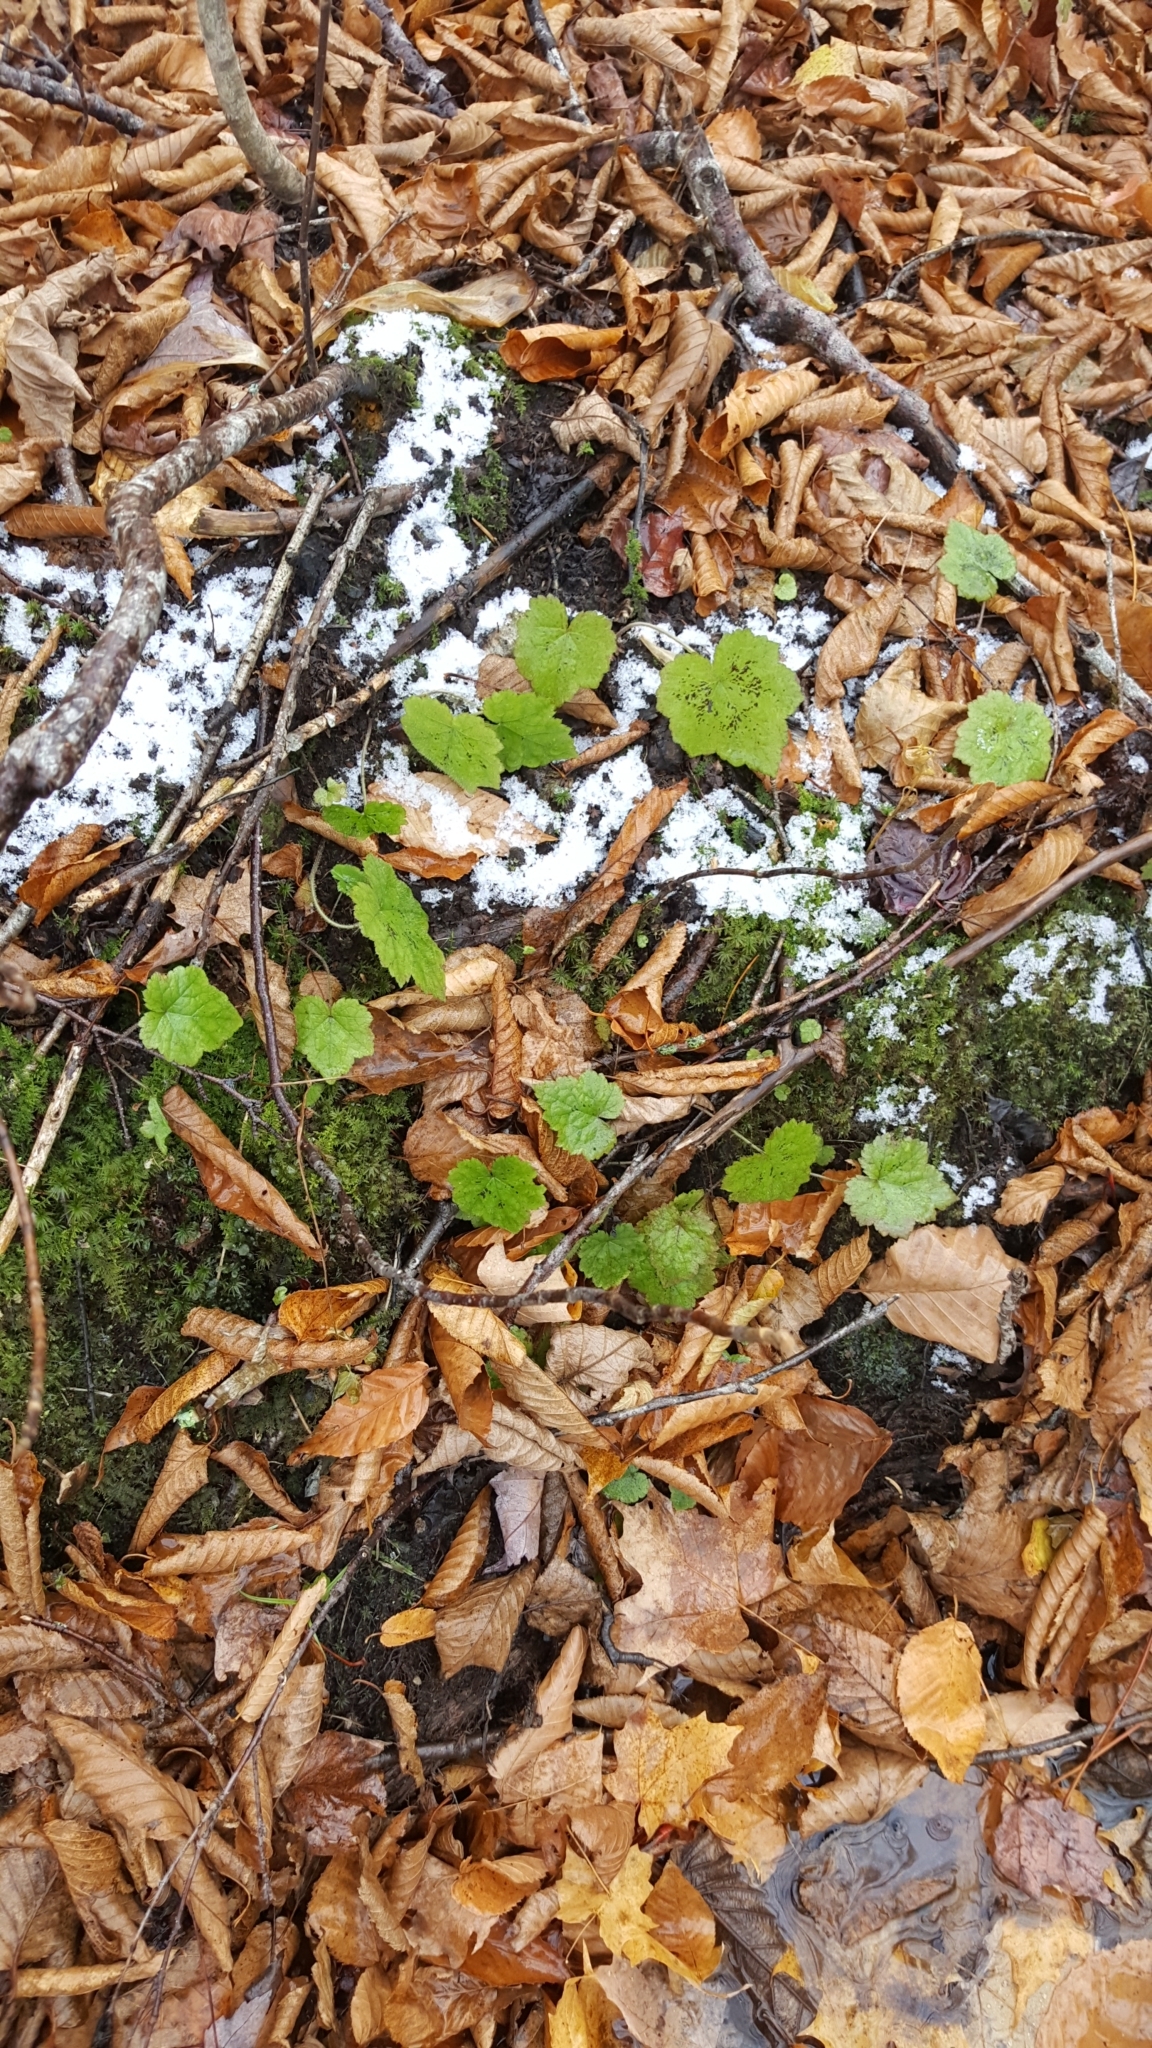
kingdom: Plantae
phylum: Tracheophyta
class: Magnoliopsida
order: Saxifragales
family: Saxifragaceae
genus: Tiarella
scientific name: Tiarella stolonifera
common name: Stoloniferous foamflower
